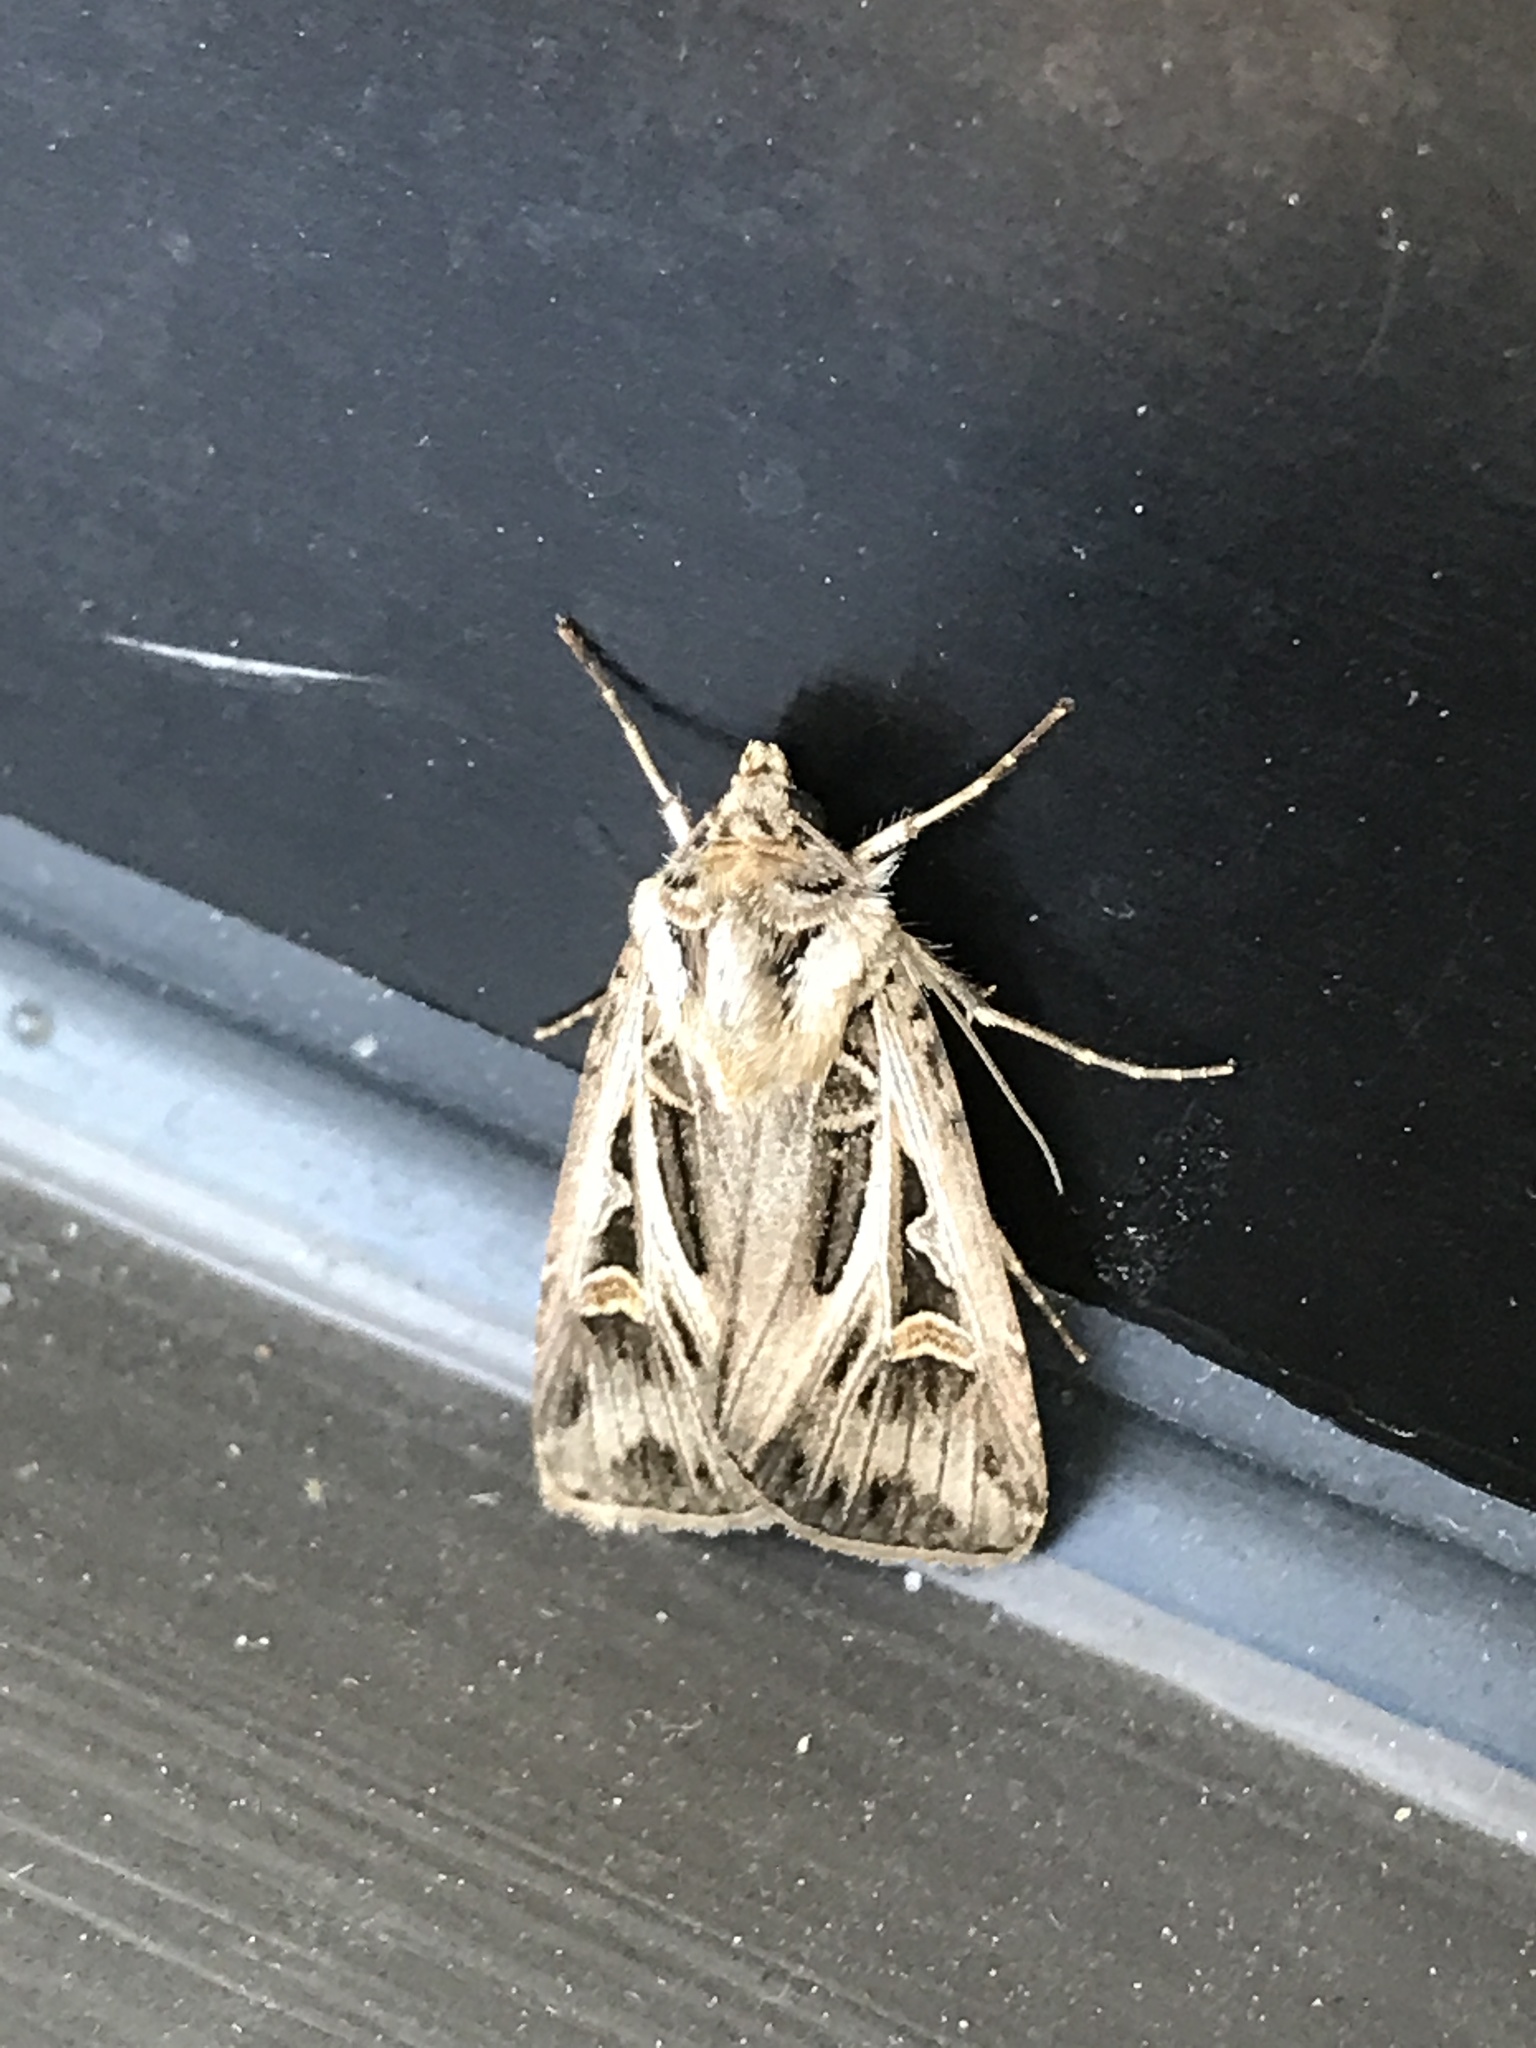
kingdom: Animalia
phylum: Arthropoda
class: Insecta
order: Lepidoptera
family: Noctuidae
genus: Feltia
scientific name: Feltia jaculifera
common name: Dingy cutworm moth
